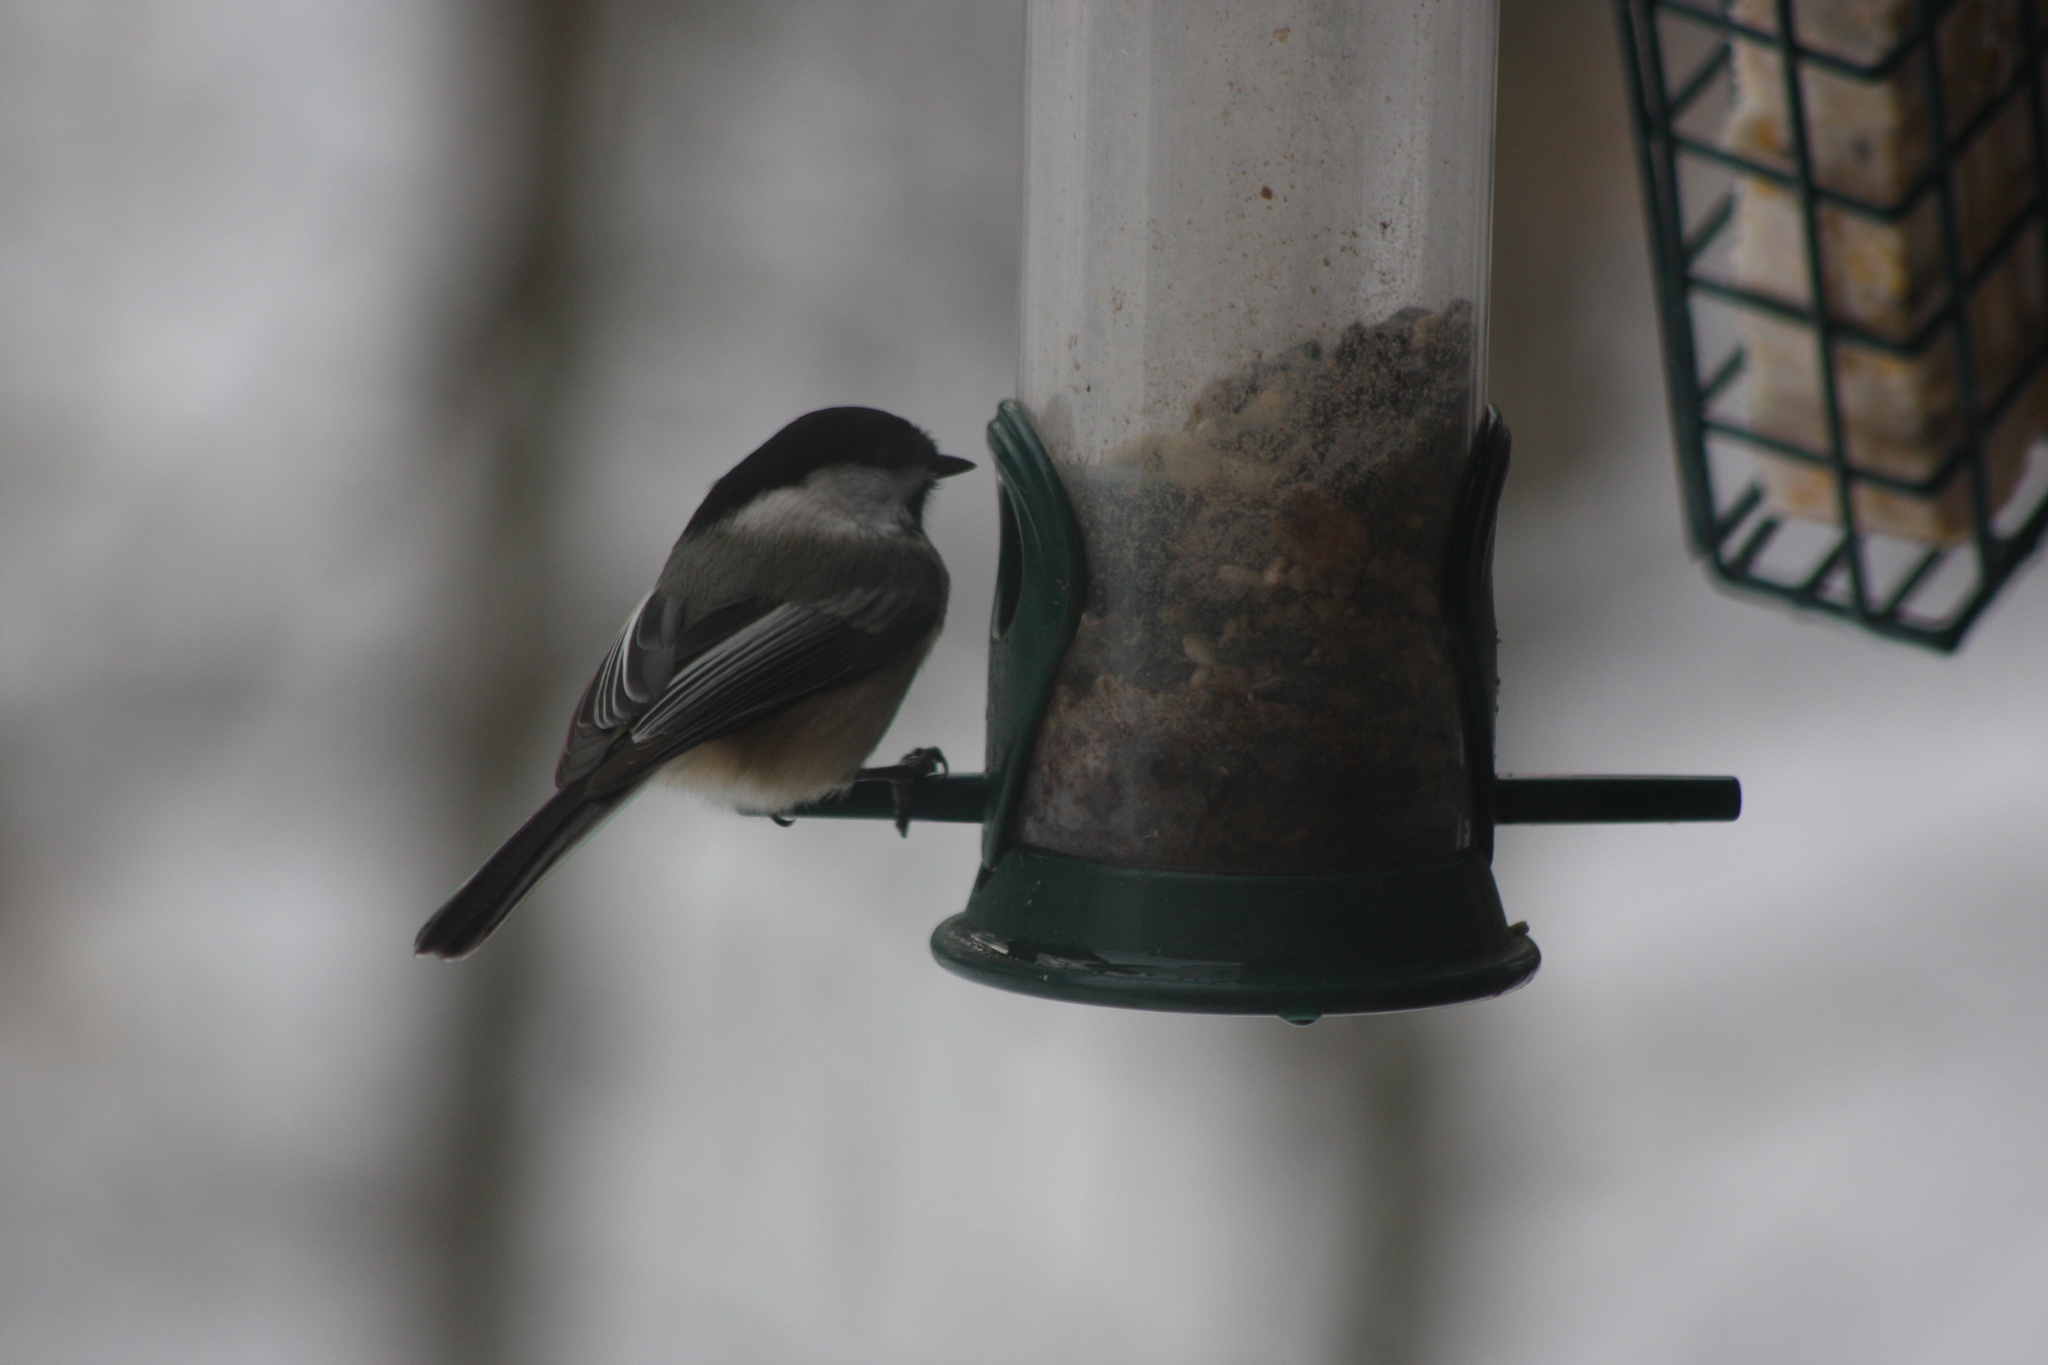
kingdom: Animalia
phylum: Chordata
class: Aves
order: Passeriformes
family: Paridae
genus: Poecile
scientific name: Poecile atricapillus
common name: Black-capped chickadee
